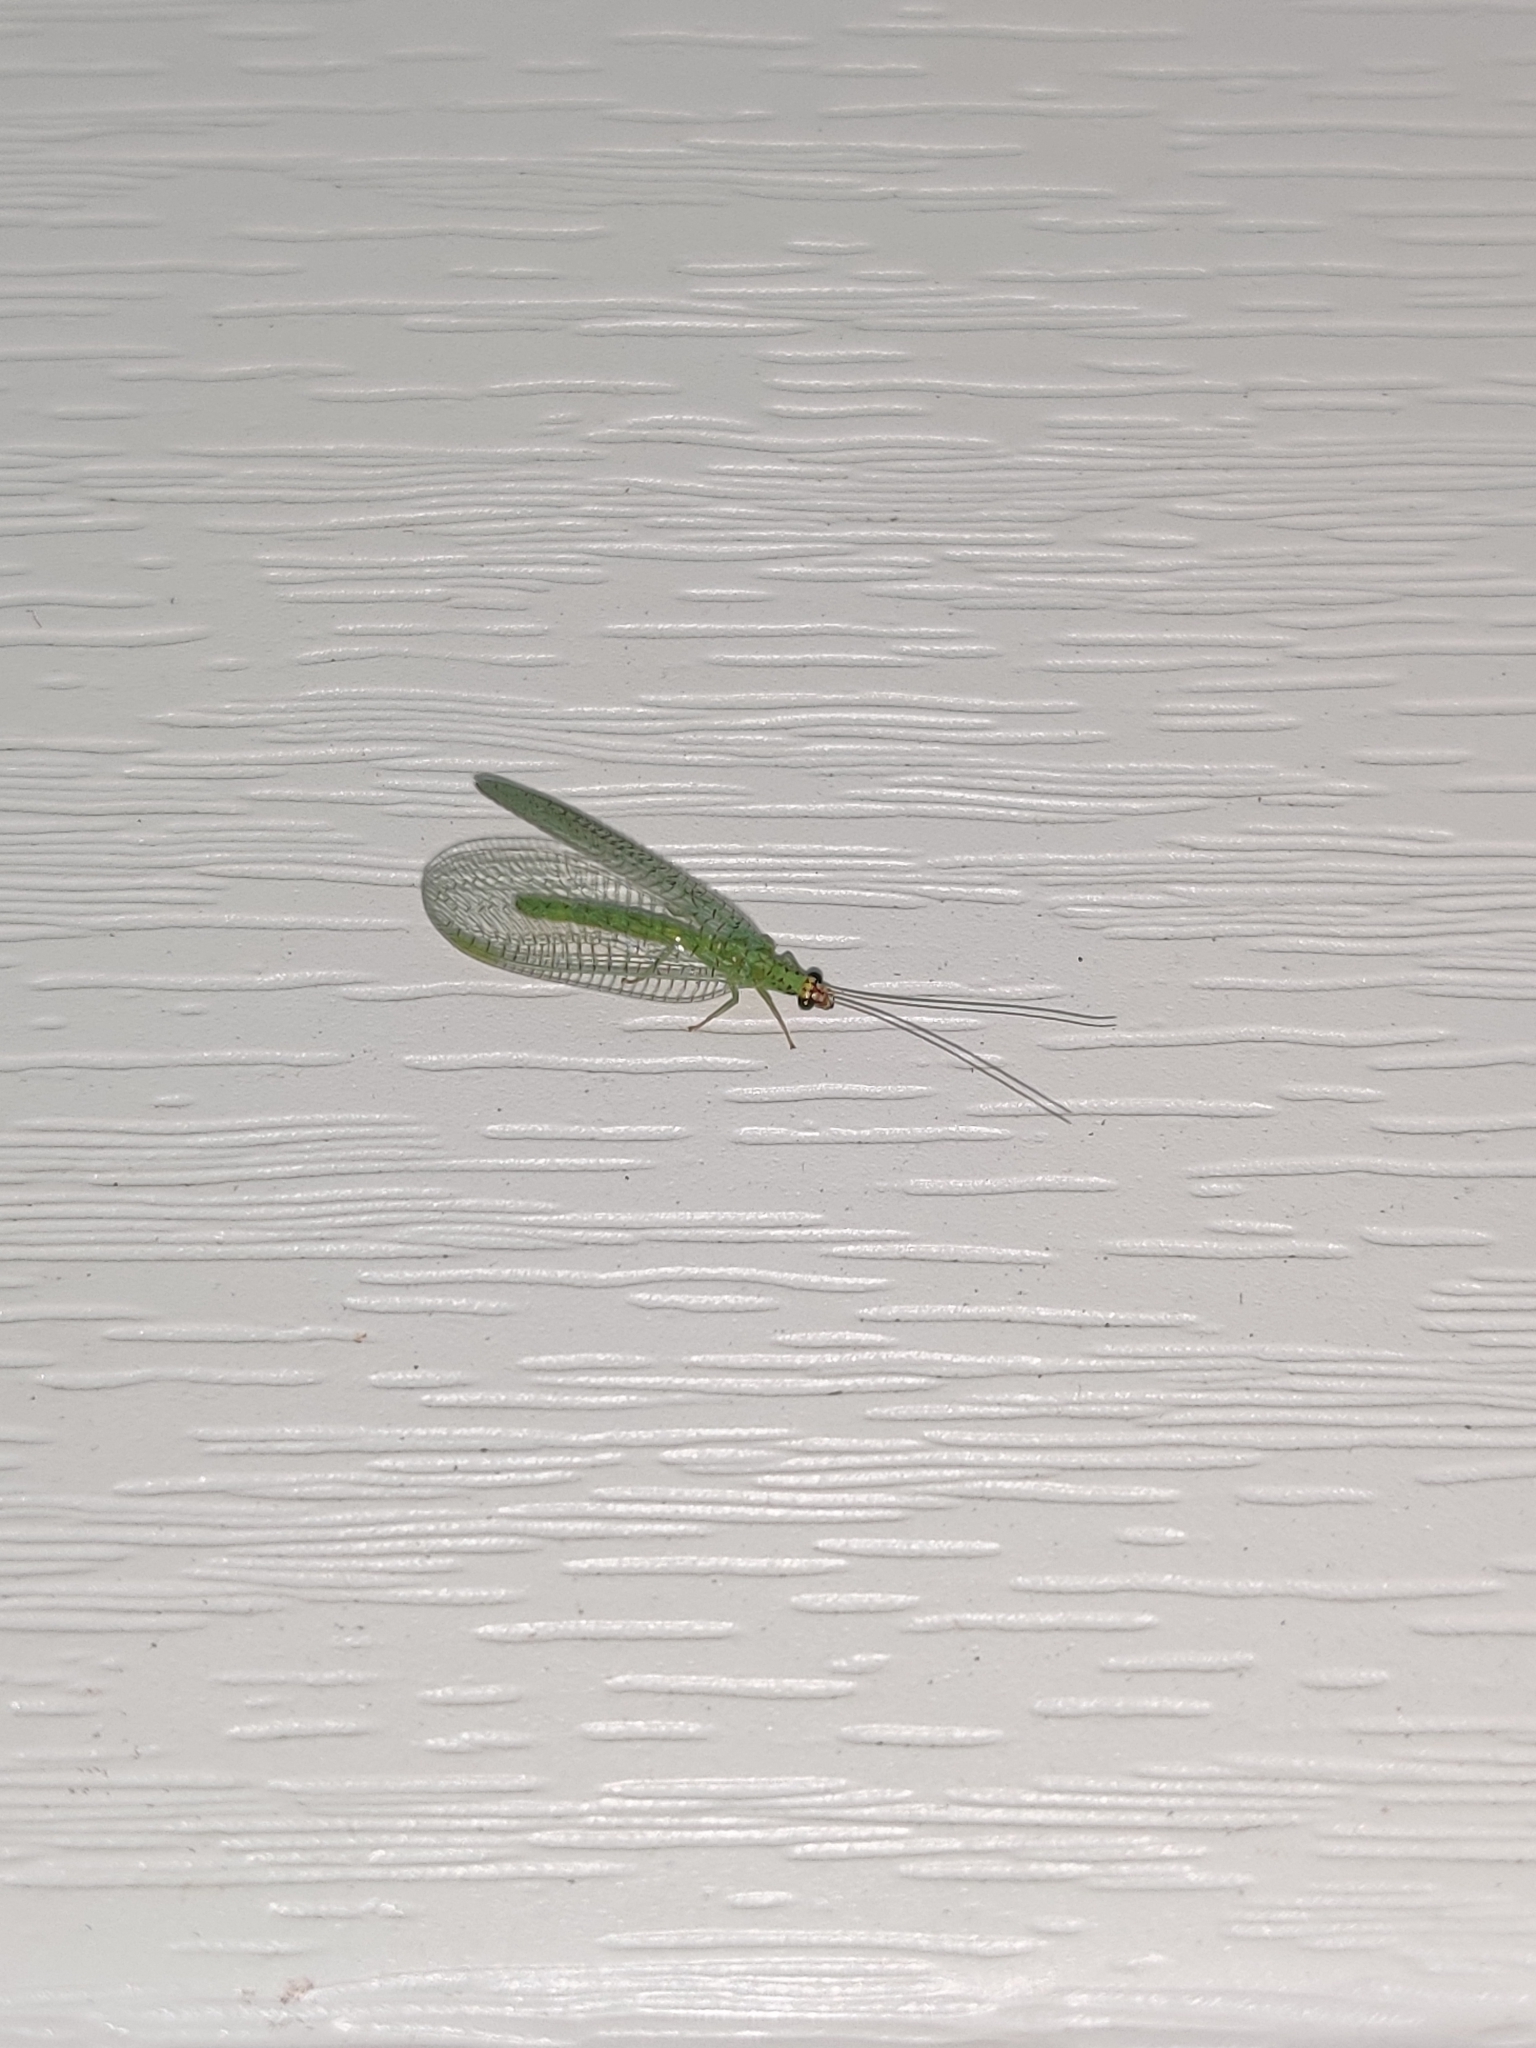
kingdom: Animalia
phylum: Arthropoda
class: Insecta
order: Neuroptera
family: Chrysopidae
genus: Chrysopa
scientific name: Chrysopa oculata
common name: Golden-eyed lacewing
